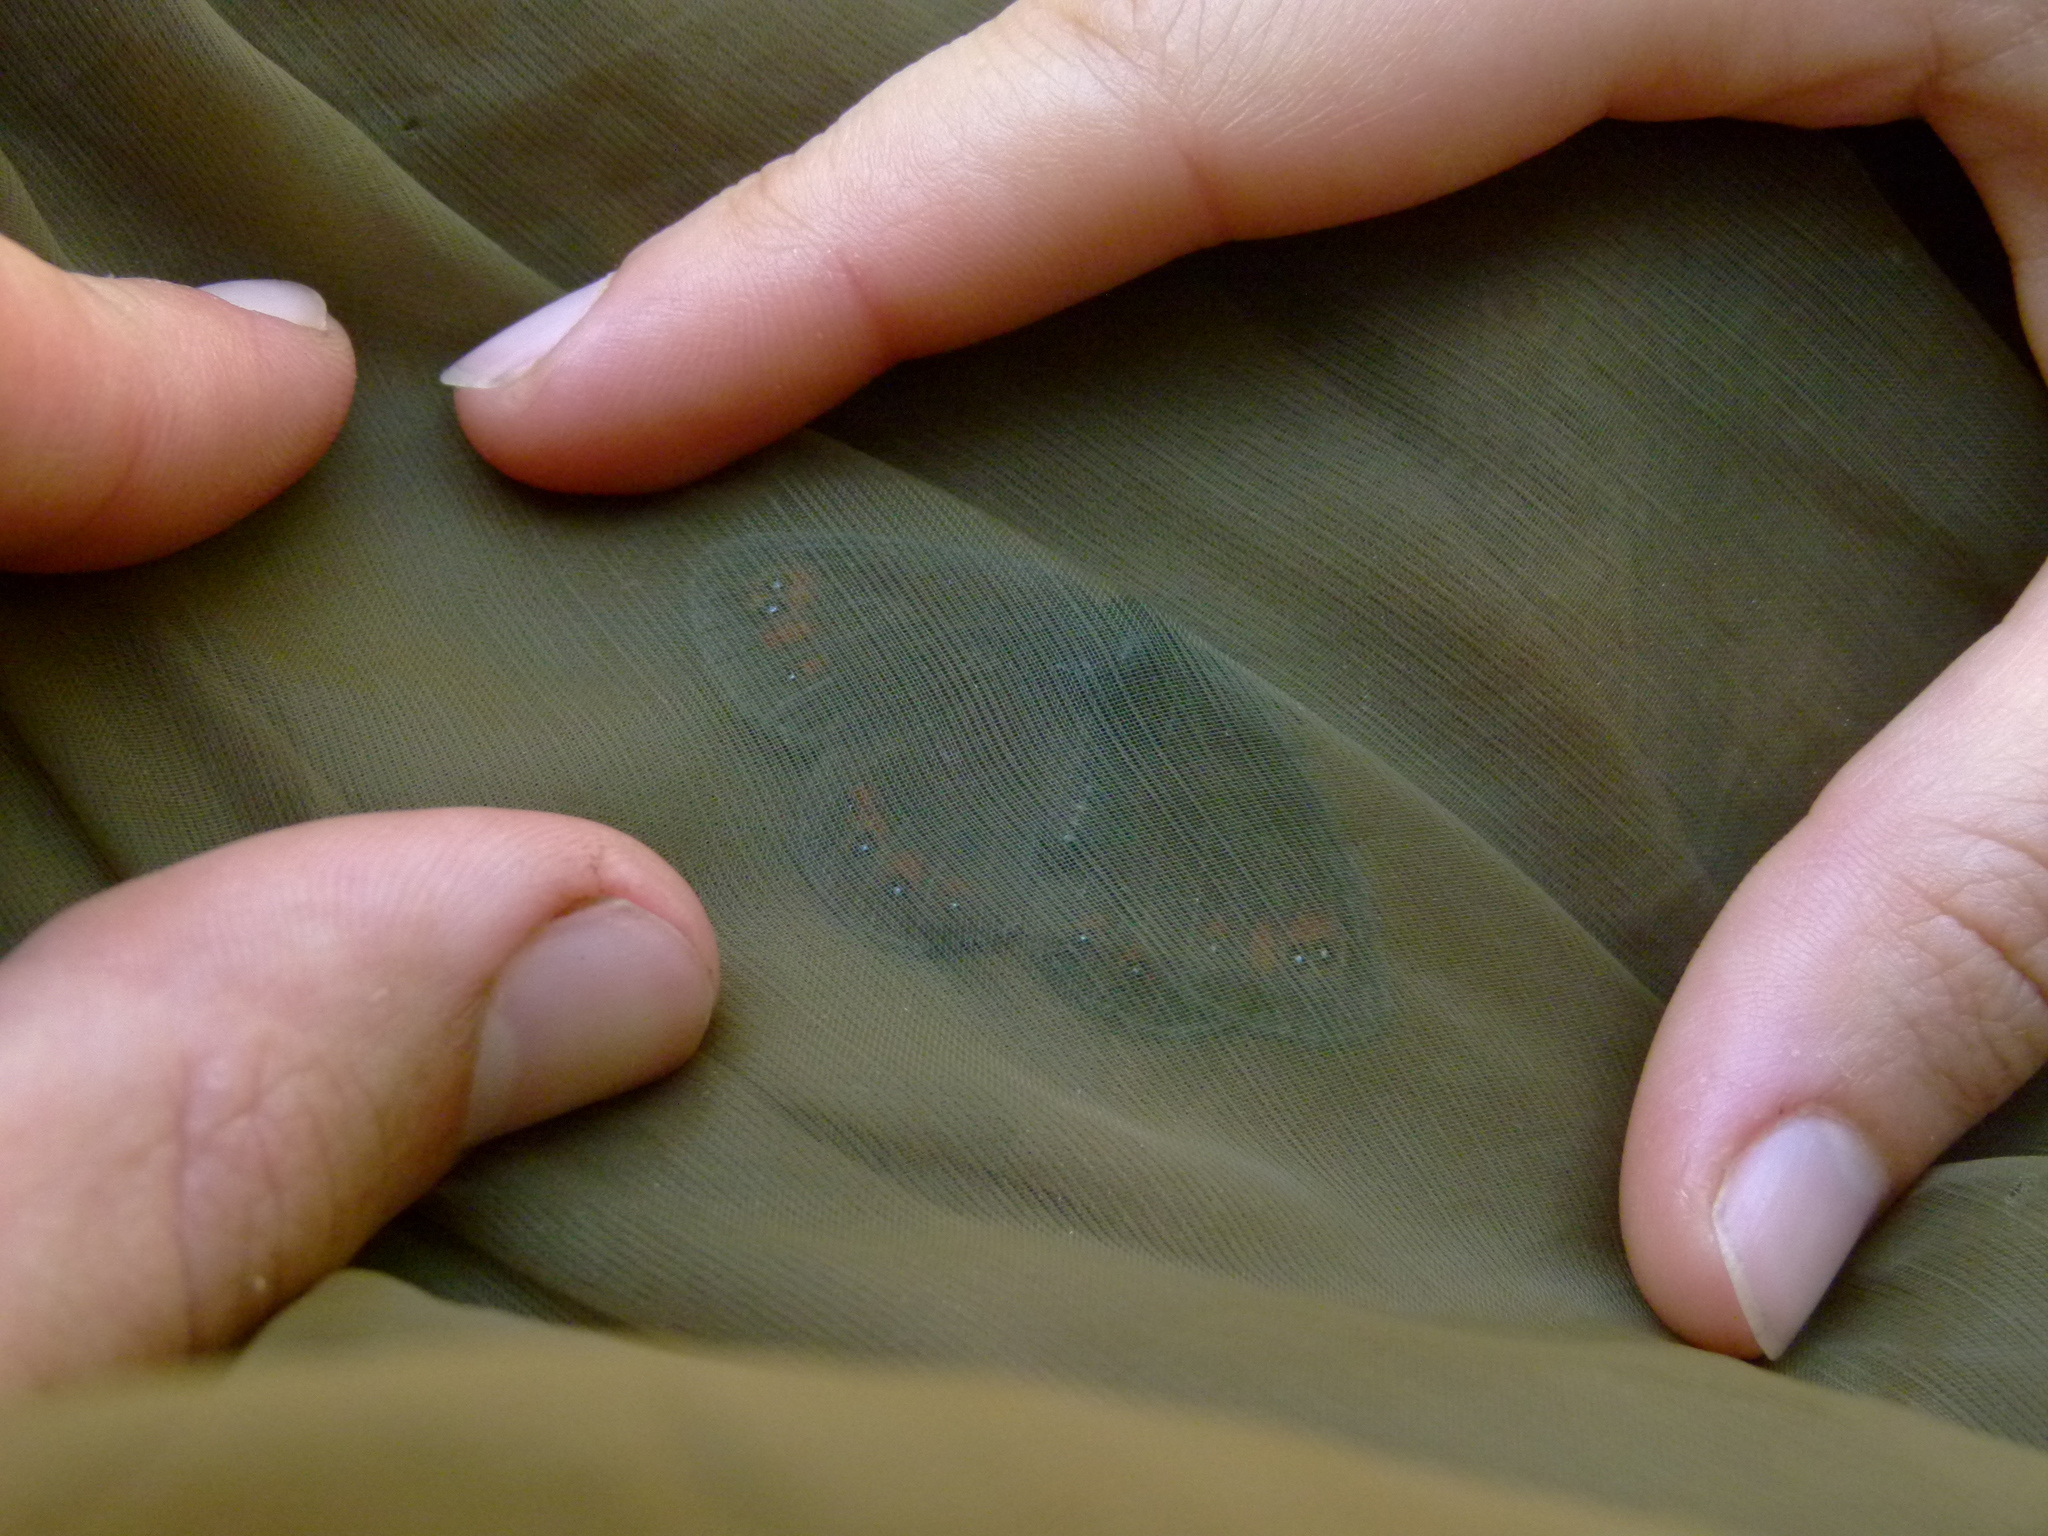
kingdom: Animalia
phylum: Arthropoda
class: Insecta
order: Lepidoptera
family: Nymphalidae
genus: Erebia
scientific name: Erebia meolans
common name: Piedmont ringlet
